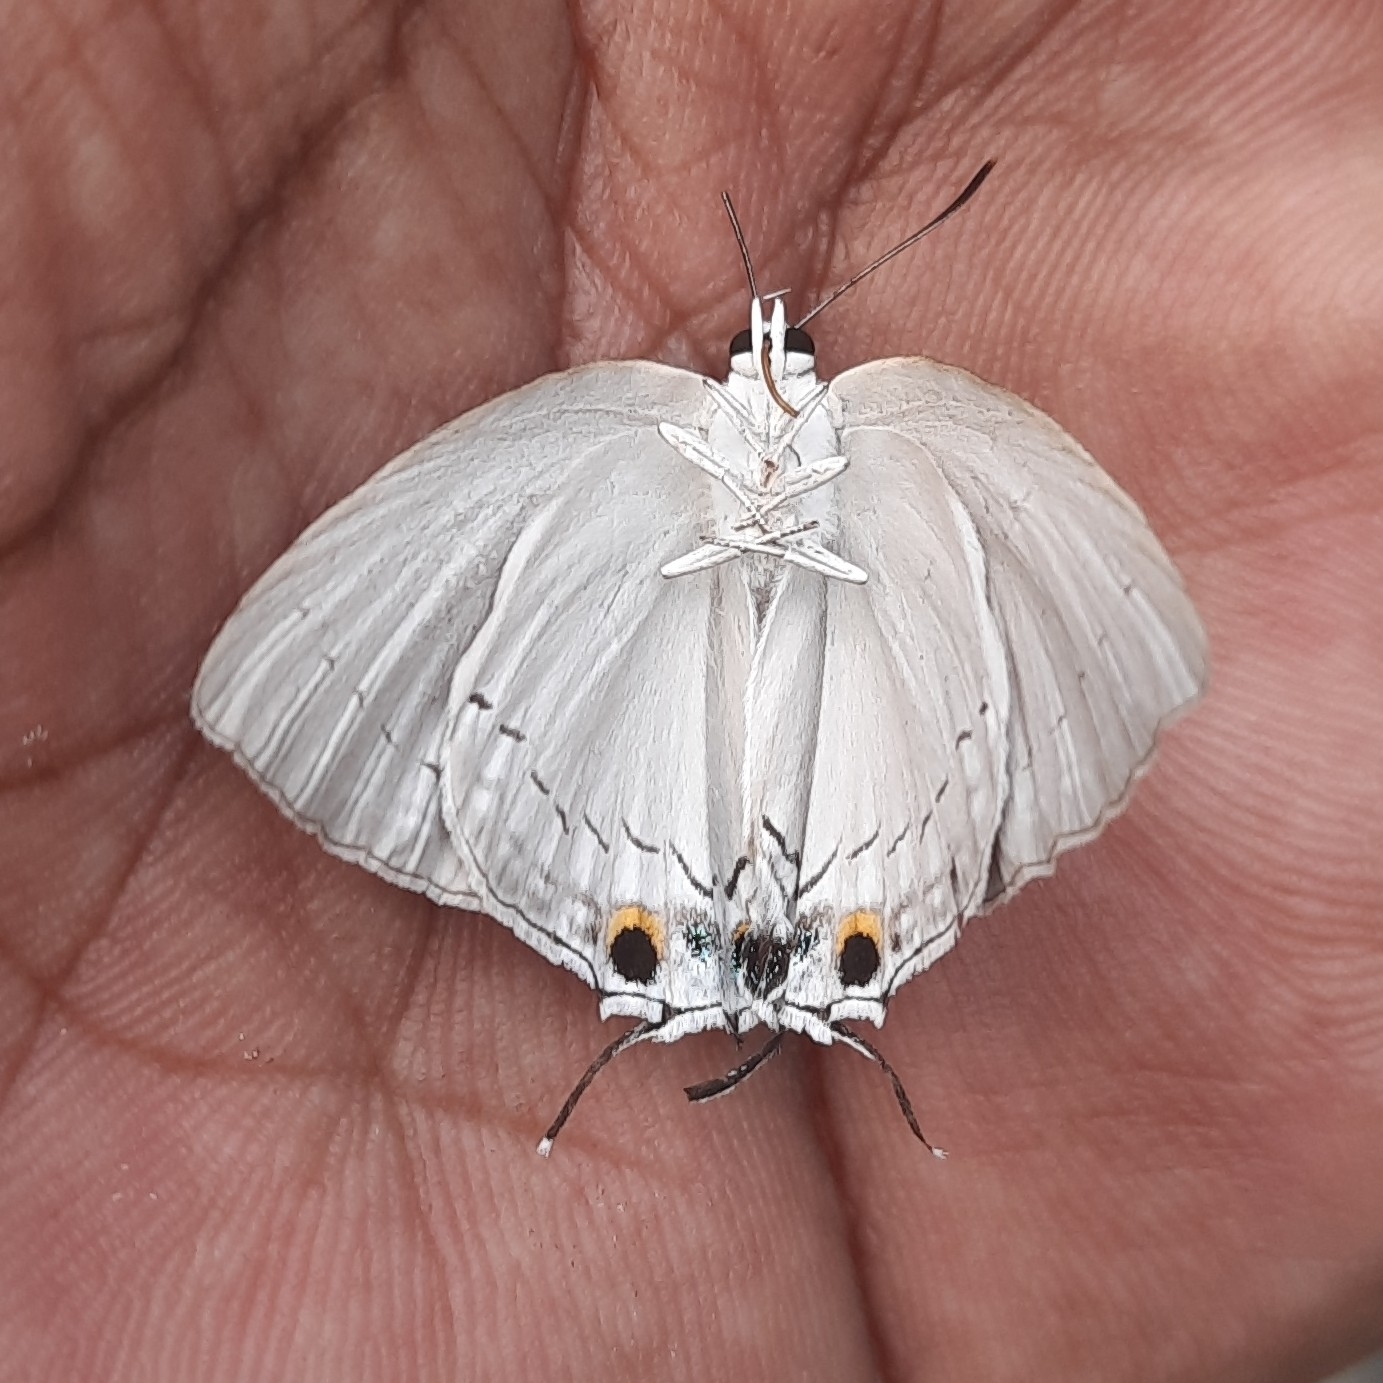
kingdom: Animalia
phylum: Arthropoda
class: Insecta
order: Lepidoptera
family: Lycaenidae
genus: Tajuria
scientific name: Tajuria cippus
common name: Peacock royal
